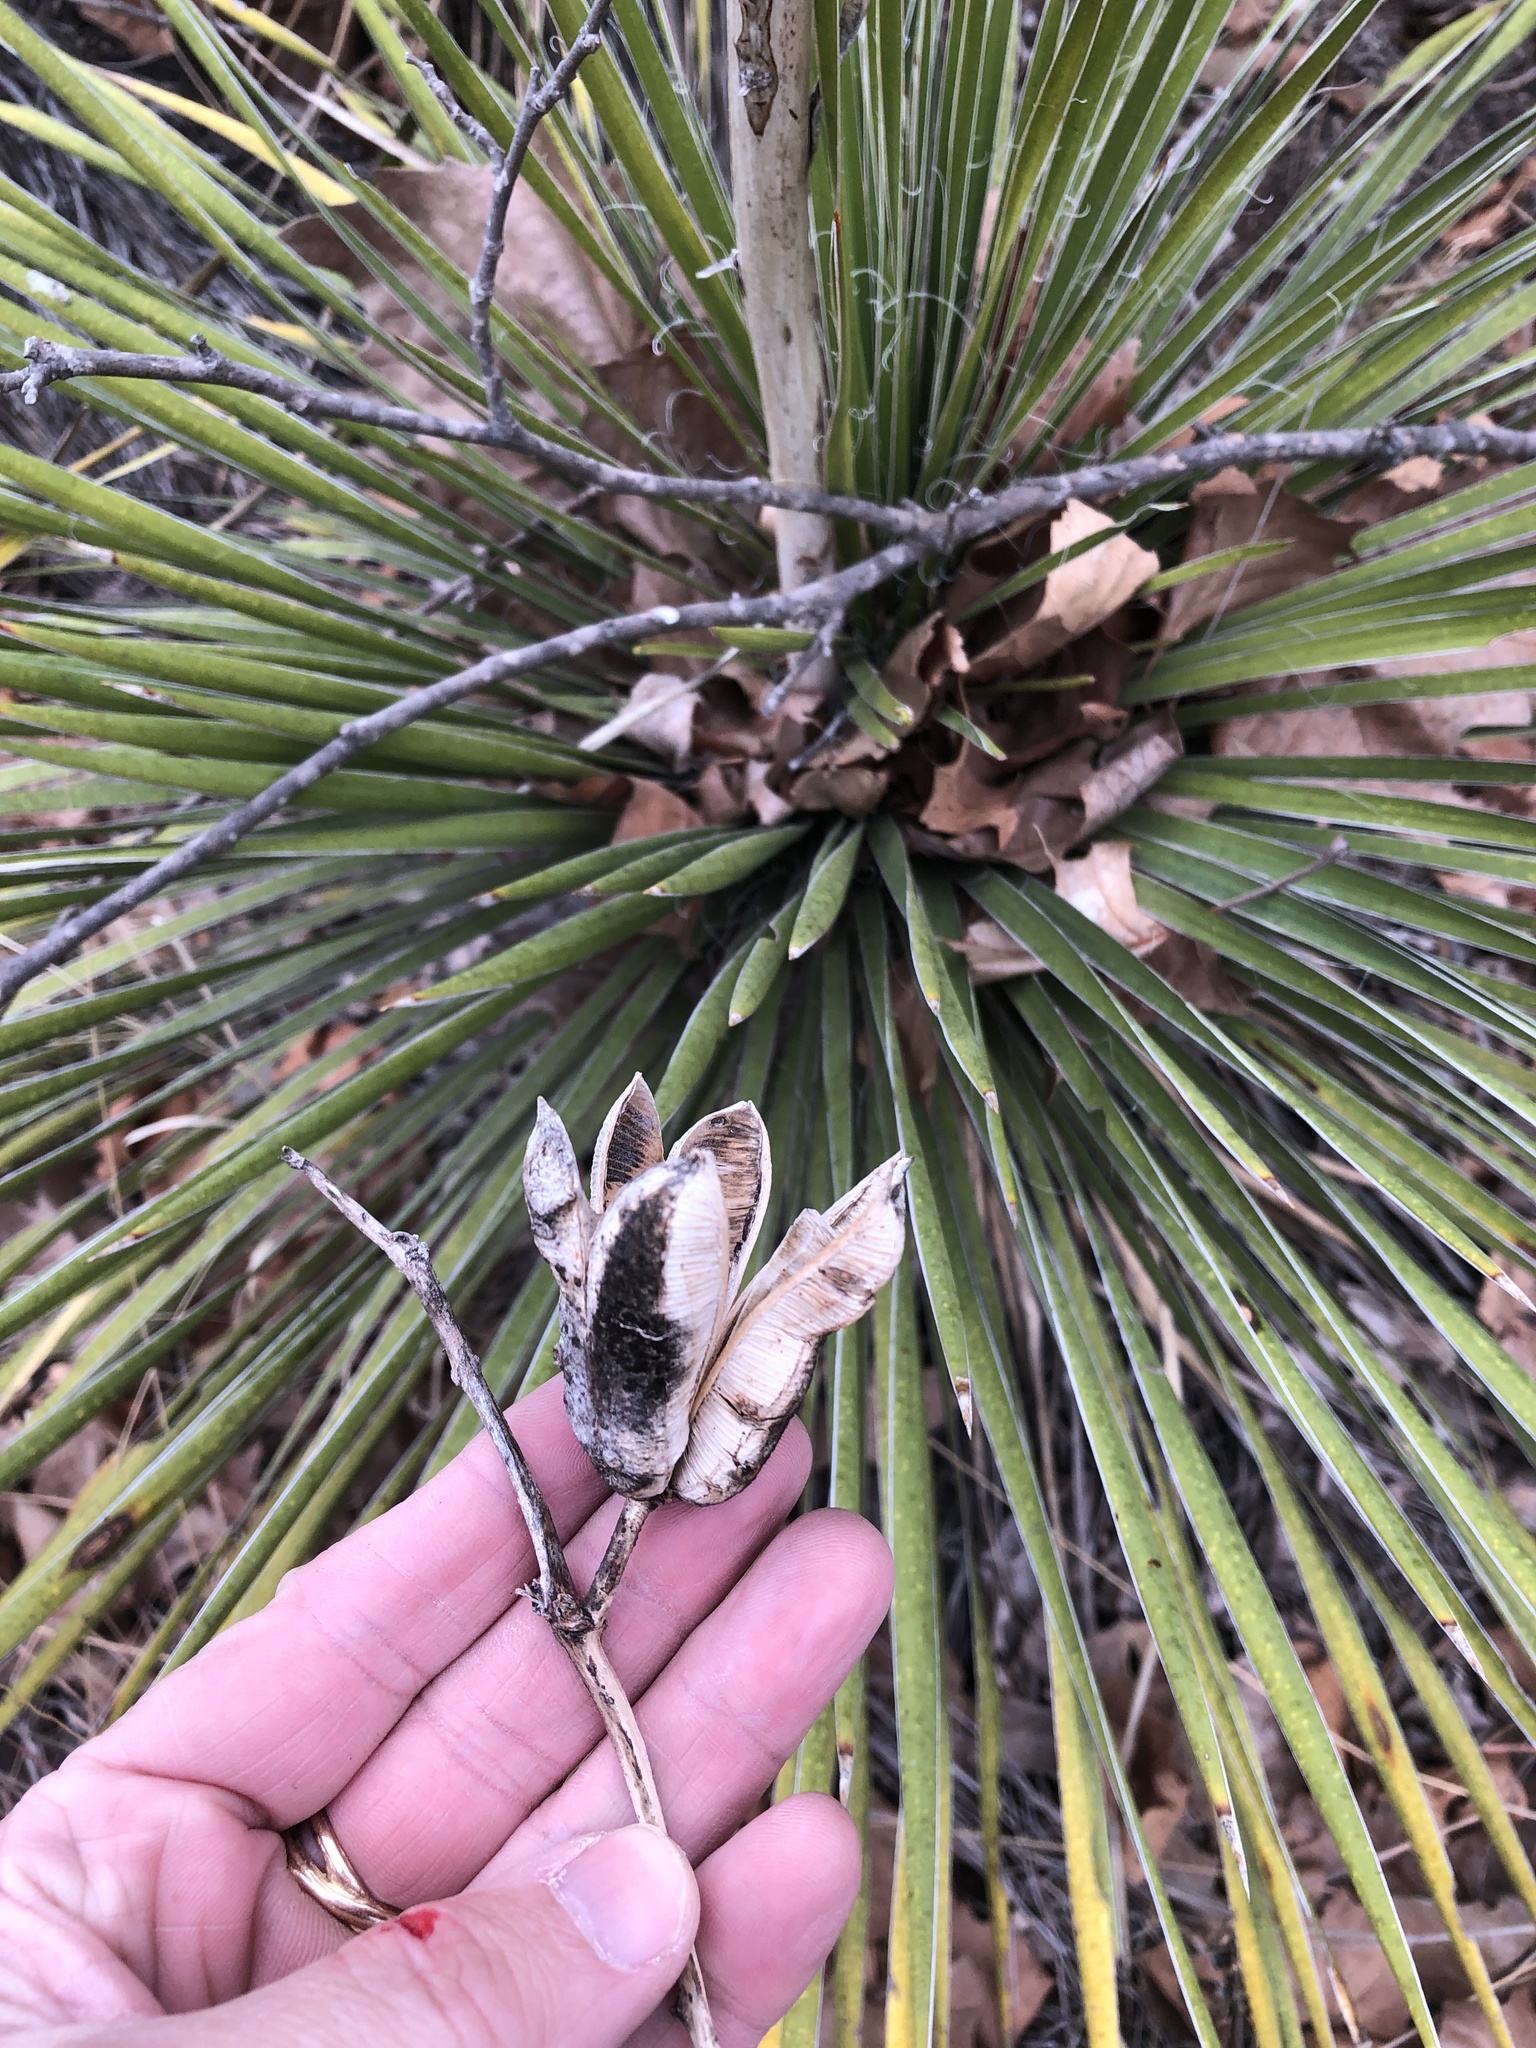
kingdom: Plantae
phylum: Tracheophyta
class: Liliopsida
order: Asparagales
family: Asparagaceae
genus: Yucca
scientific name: Yucca constricta
